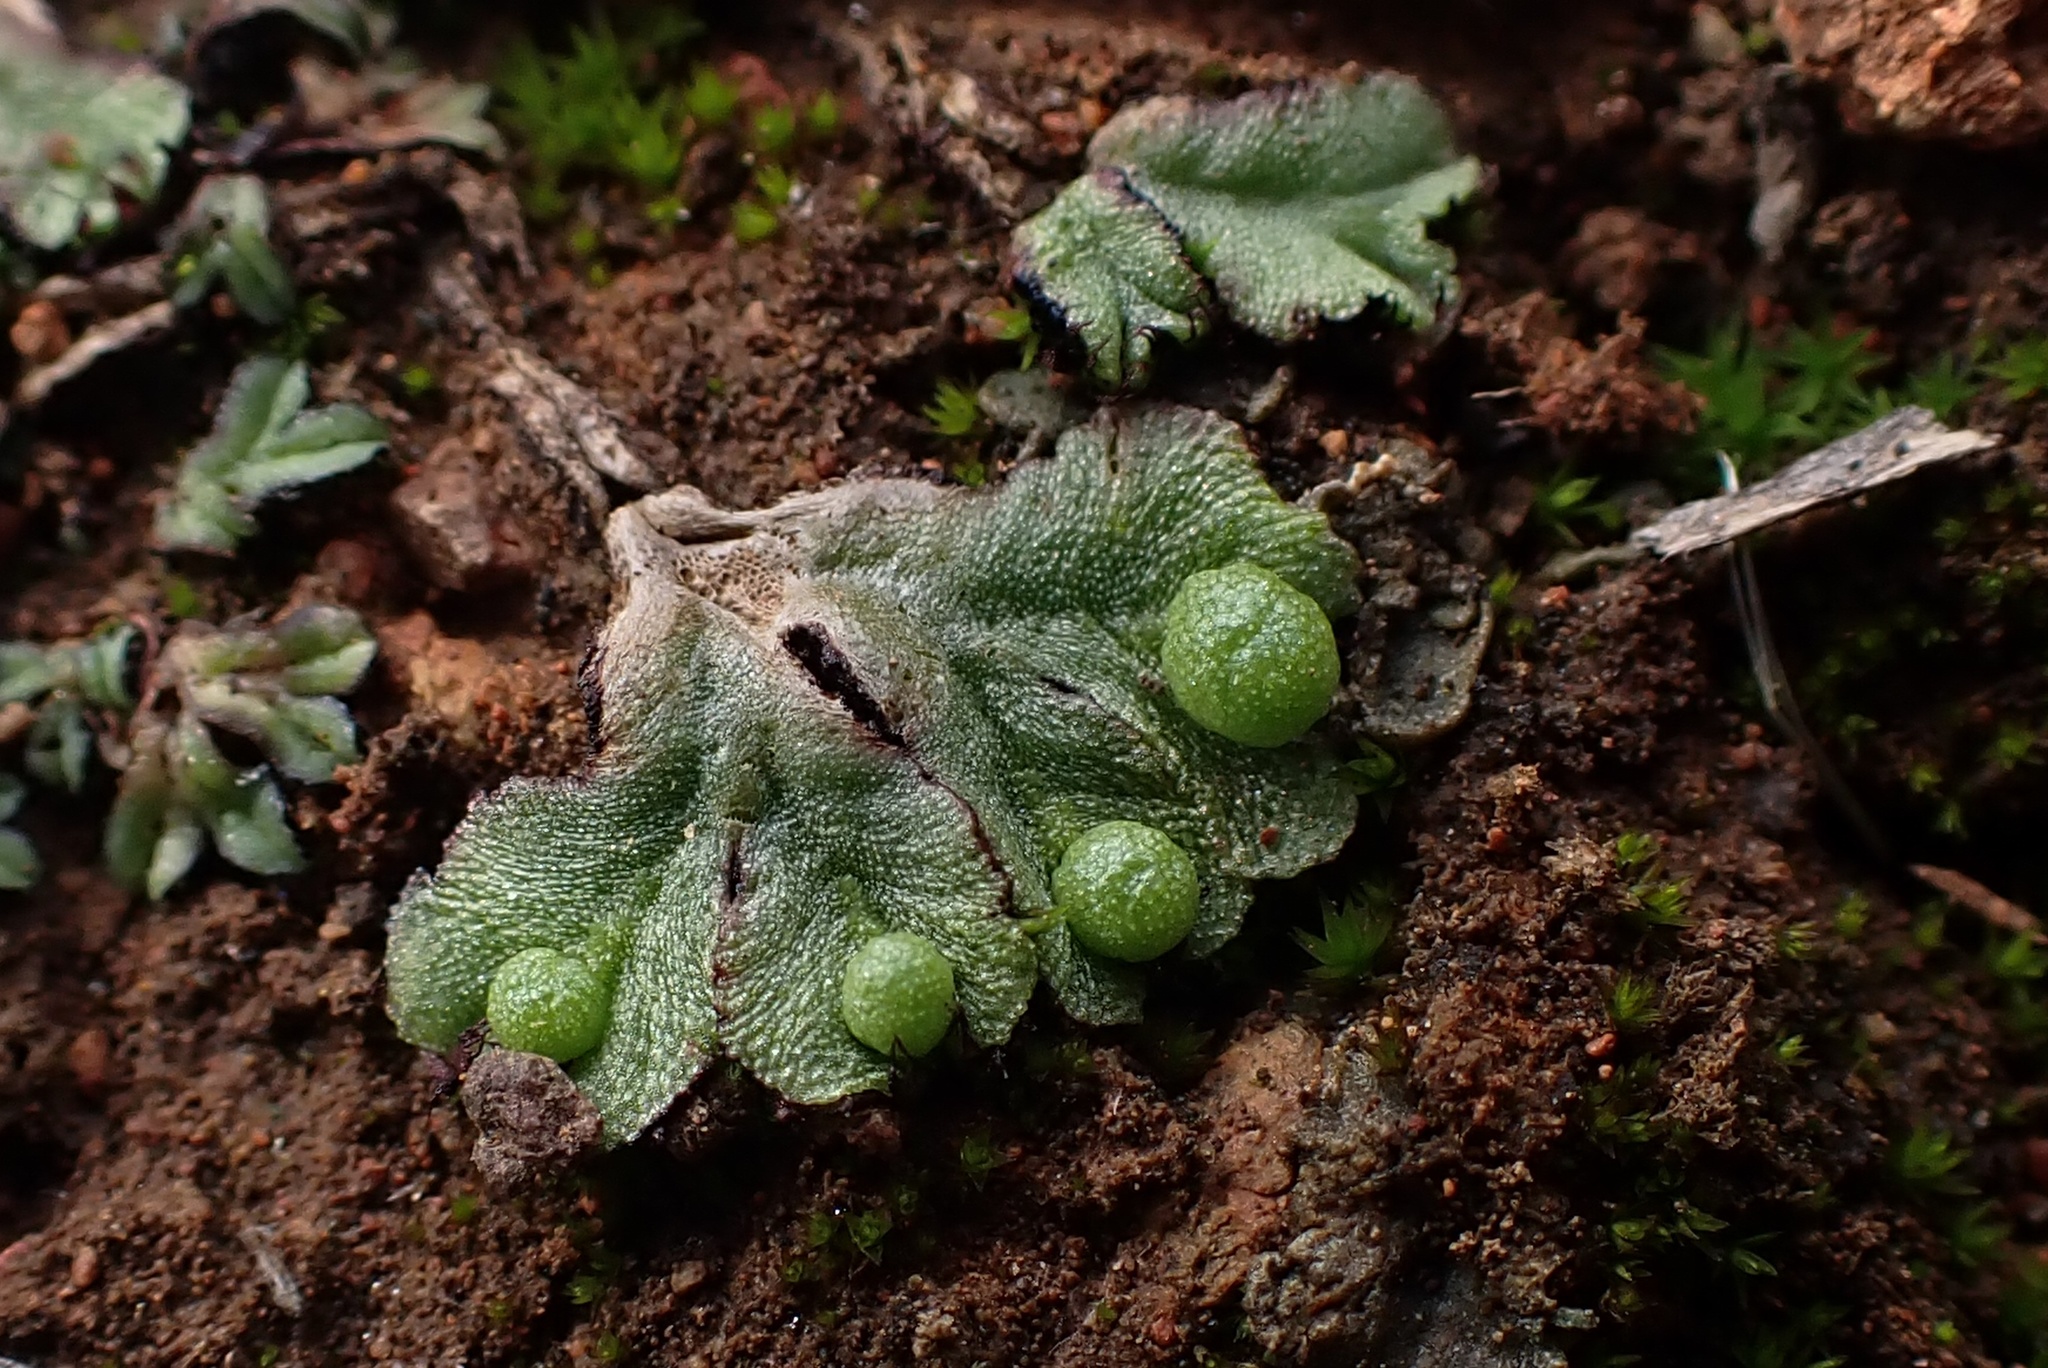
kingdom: Plantae
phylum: Marchantiophyta
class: Marchantiopsida
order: Marchantiales
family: Aytoniaceae
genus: Asterella
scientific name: Asterella californica
